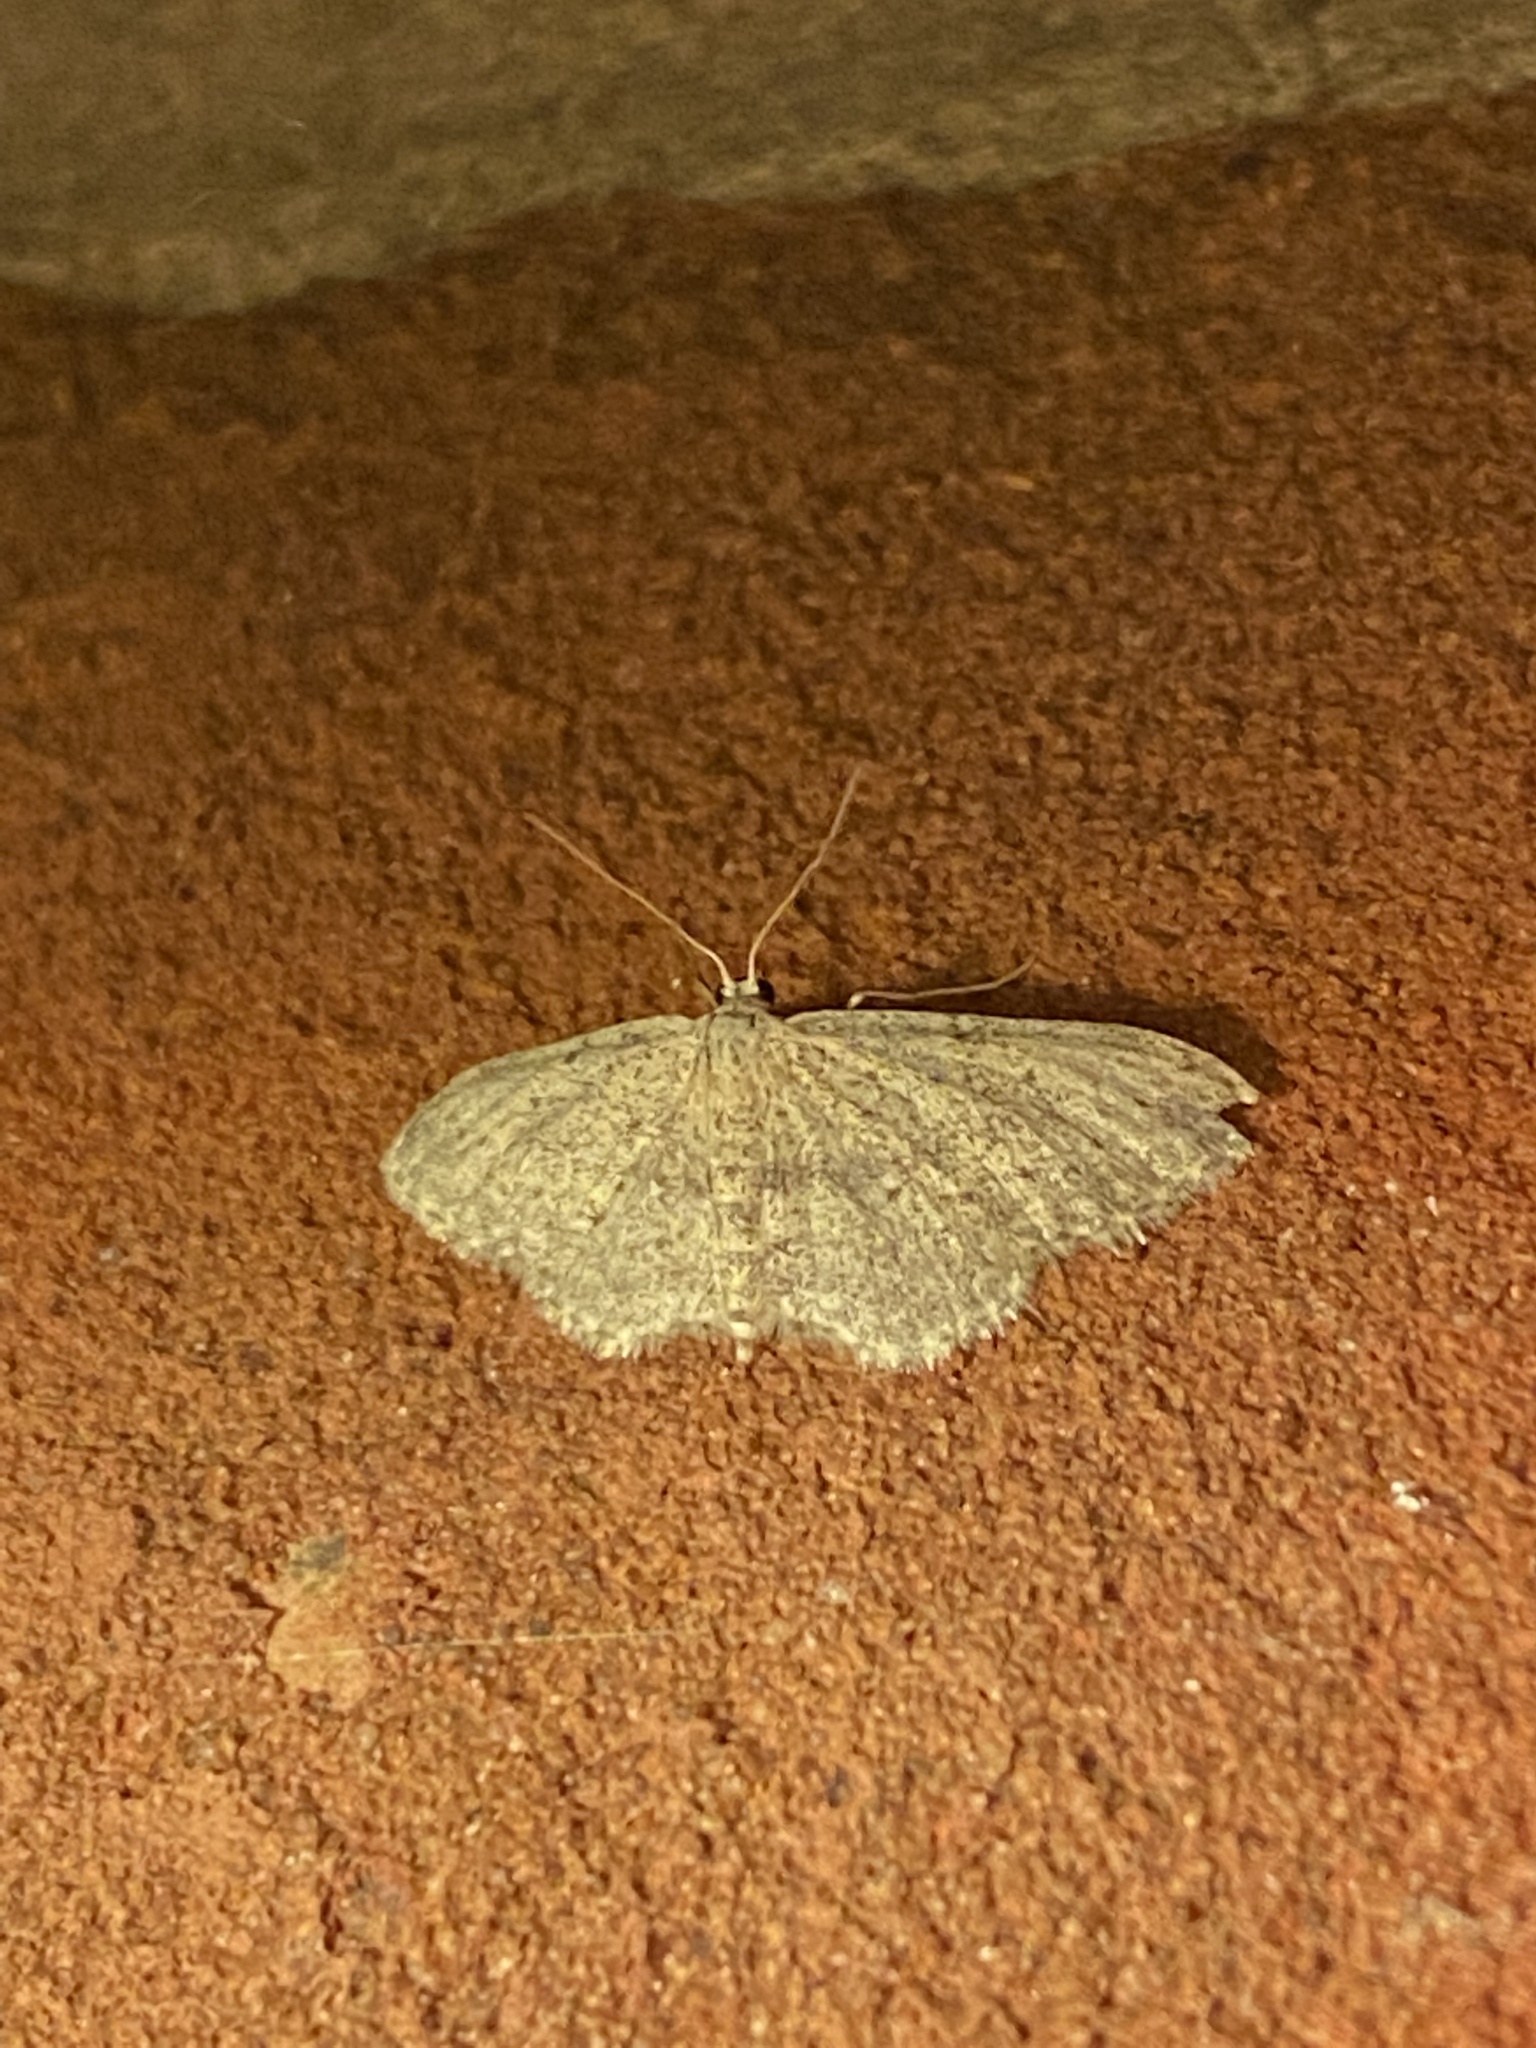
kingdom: Animalia
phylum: Arthropoda
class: Insecta
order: Lepidoptera
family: Geometridae
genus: Idaea
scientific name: Idaea seriata
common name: Small dusty wave
